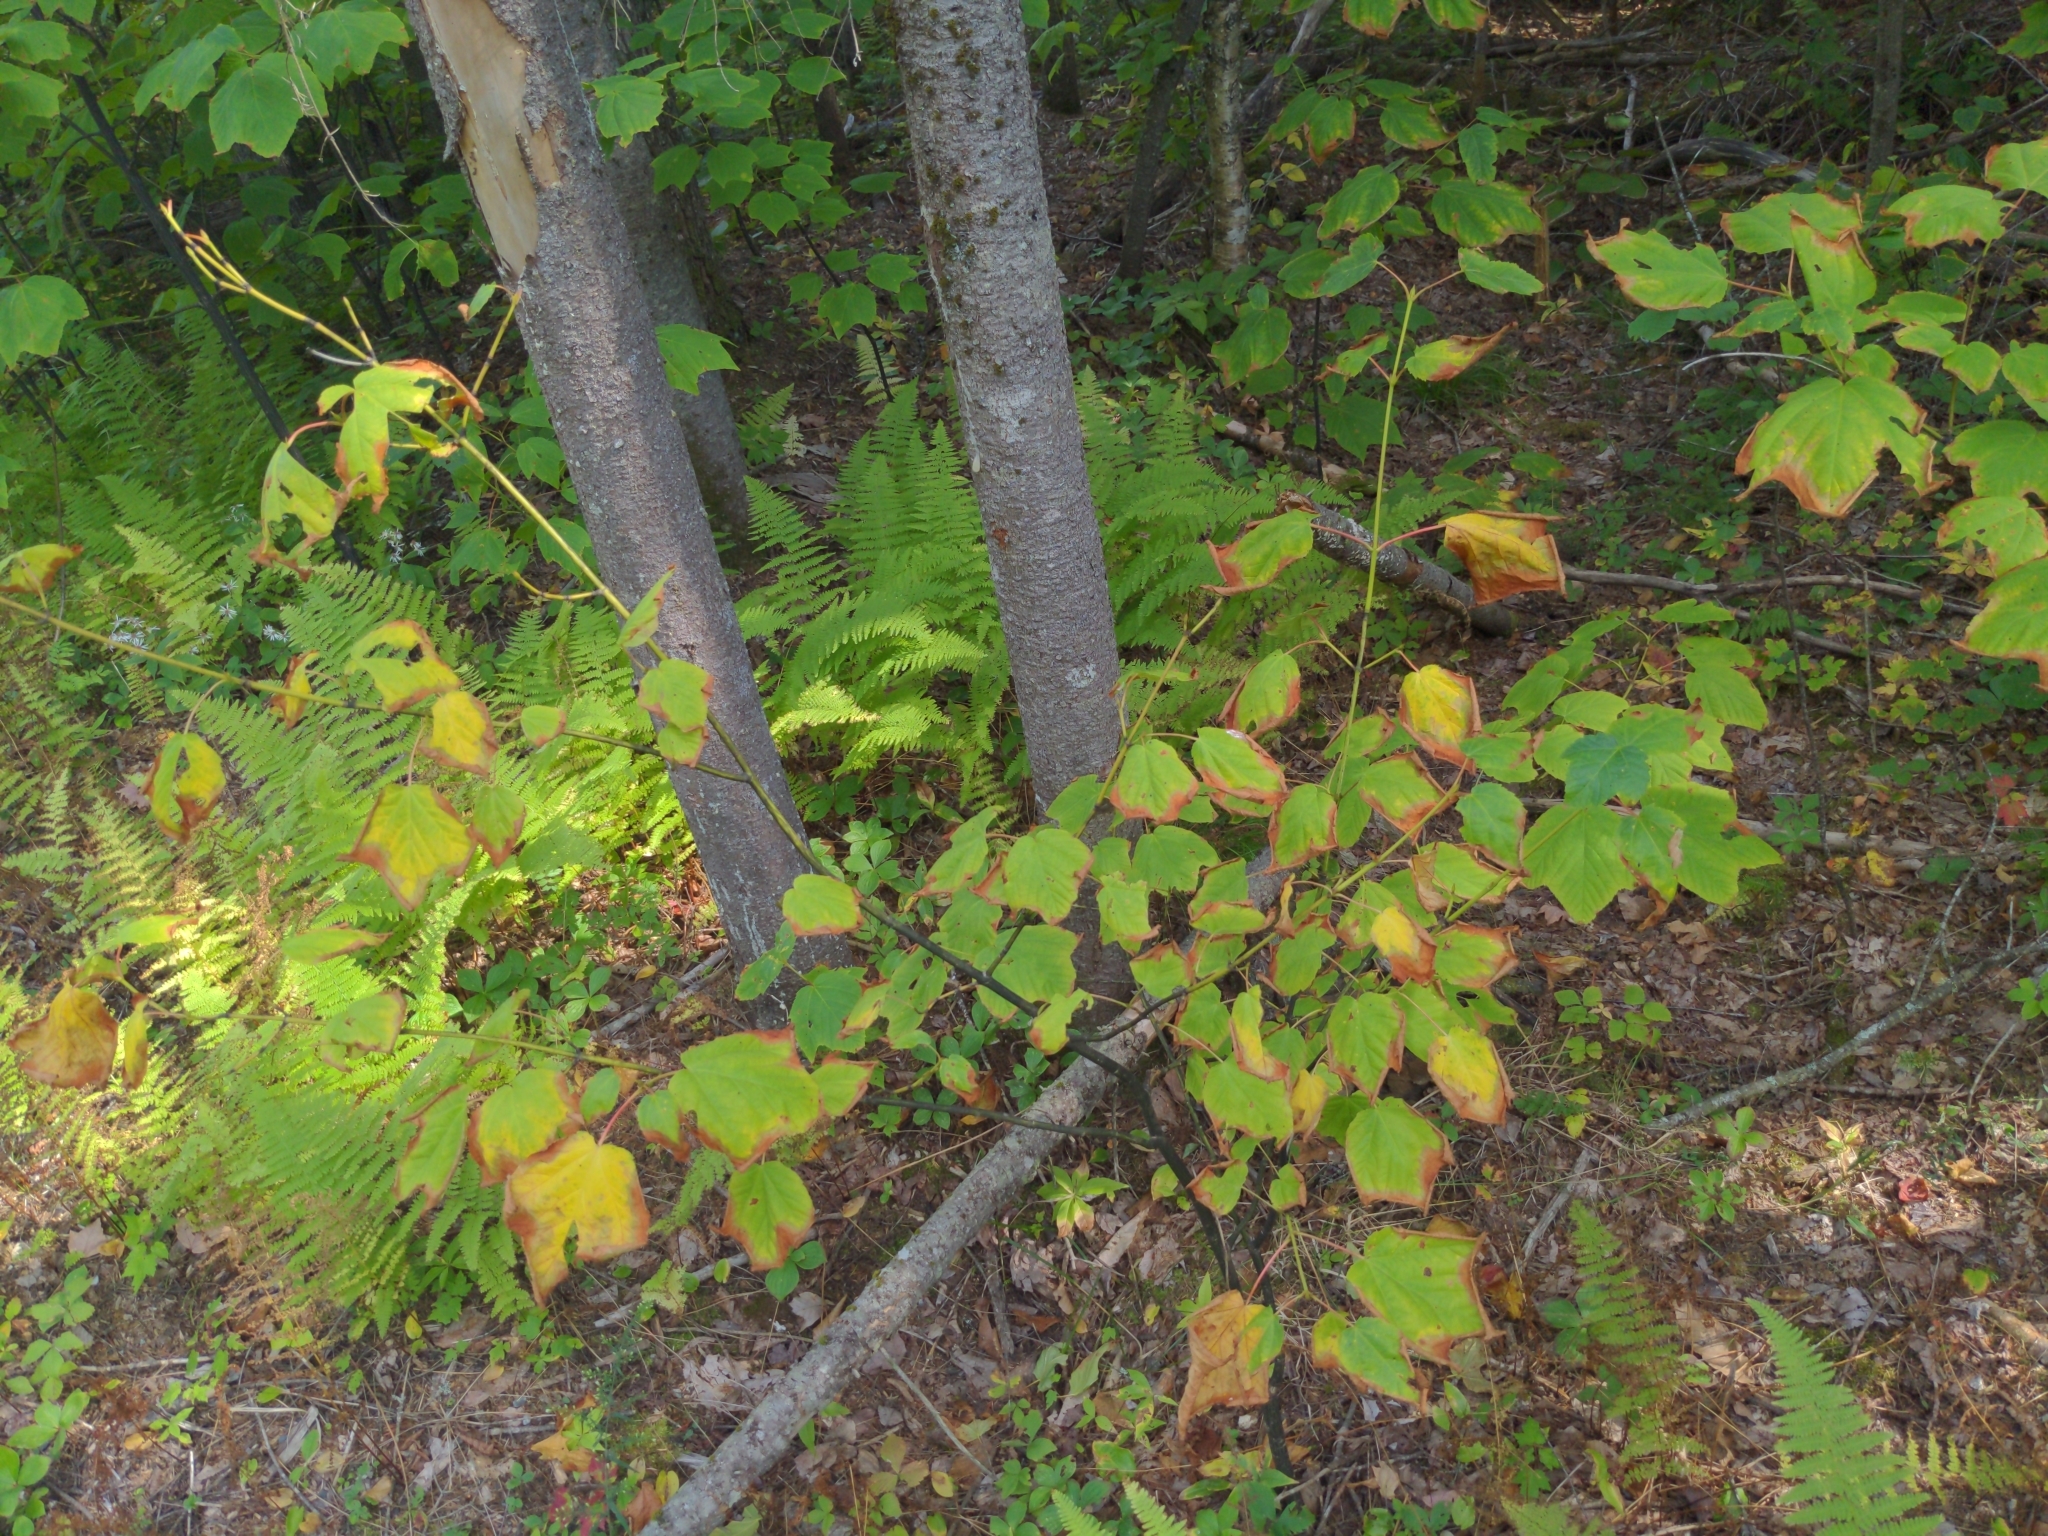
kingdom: Plantae
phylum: Tracheophyta
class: Magnoliopsida
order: Sapindales
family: Sapindaceae
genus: Acer
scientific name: Acer pensylvanicum
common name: Moosewood
